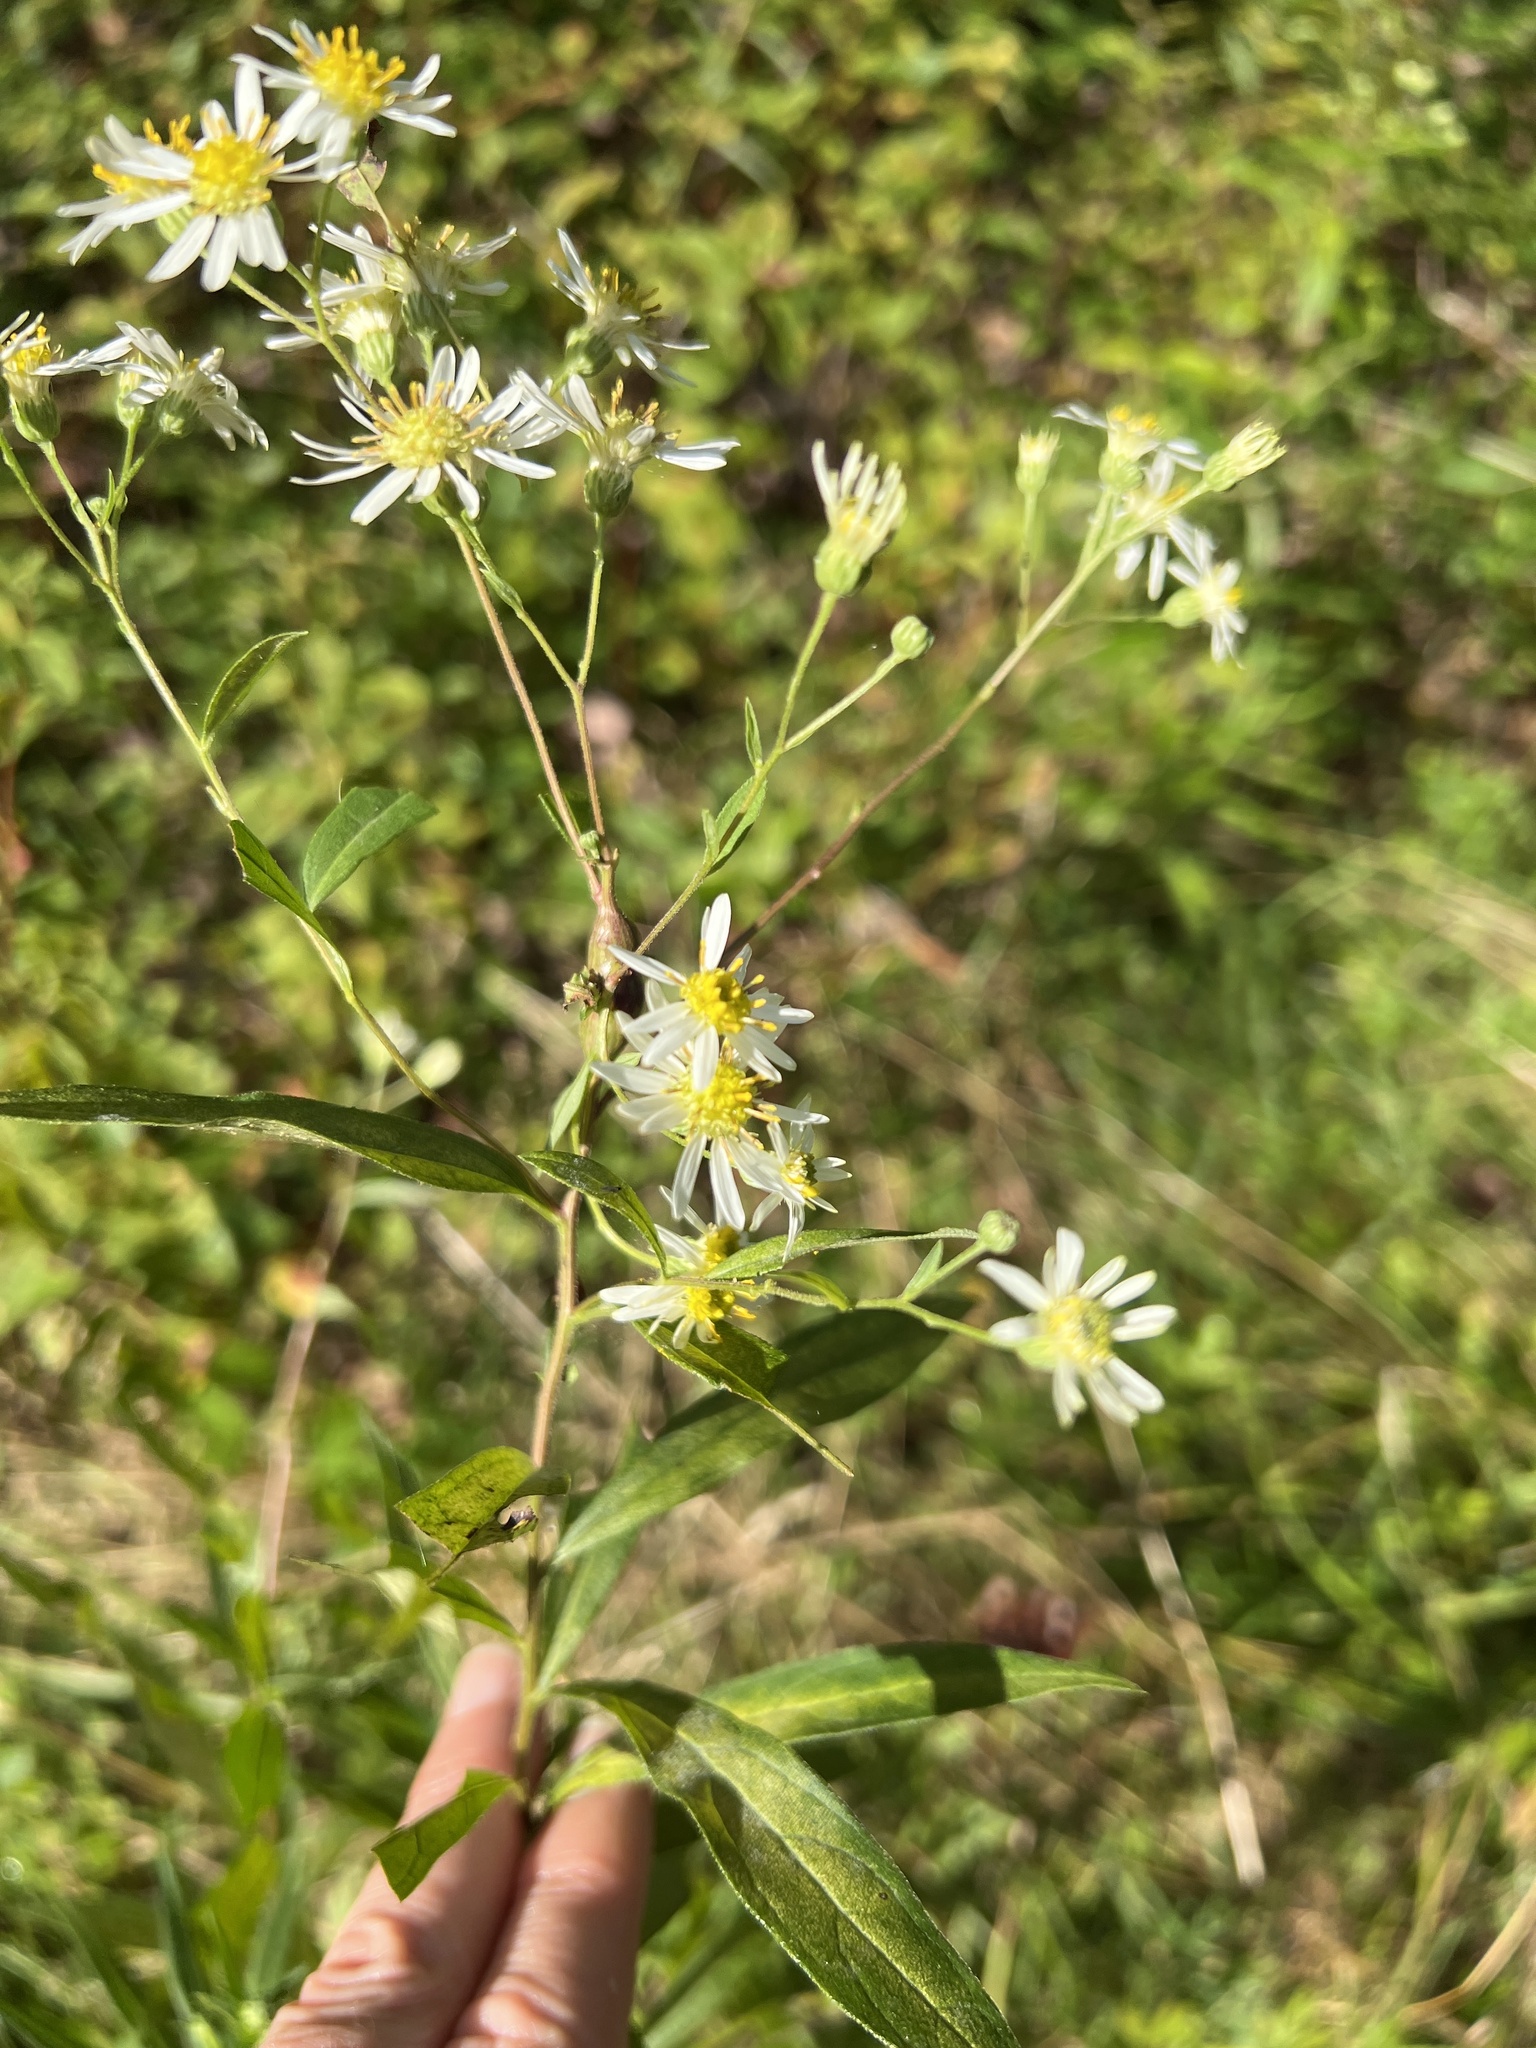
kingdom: Plantae
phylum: Tracheophyta
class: Magnoliopsida
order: Asterales
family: Asteraceae
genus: Doellingeria
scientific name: Doellingeria umbellata
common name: Flat-top white aster
